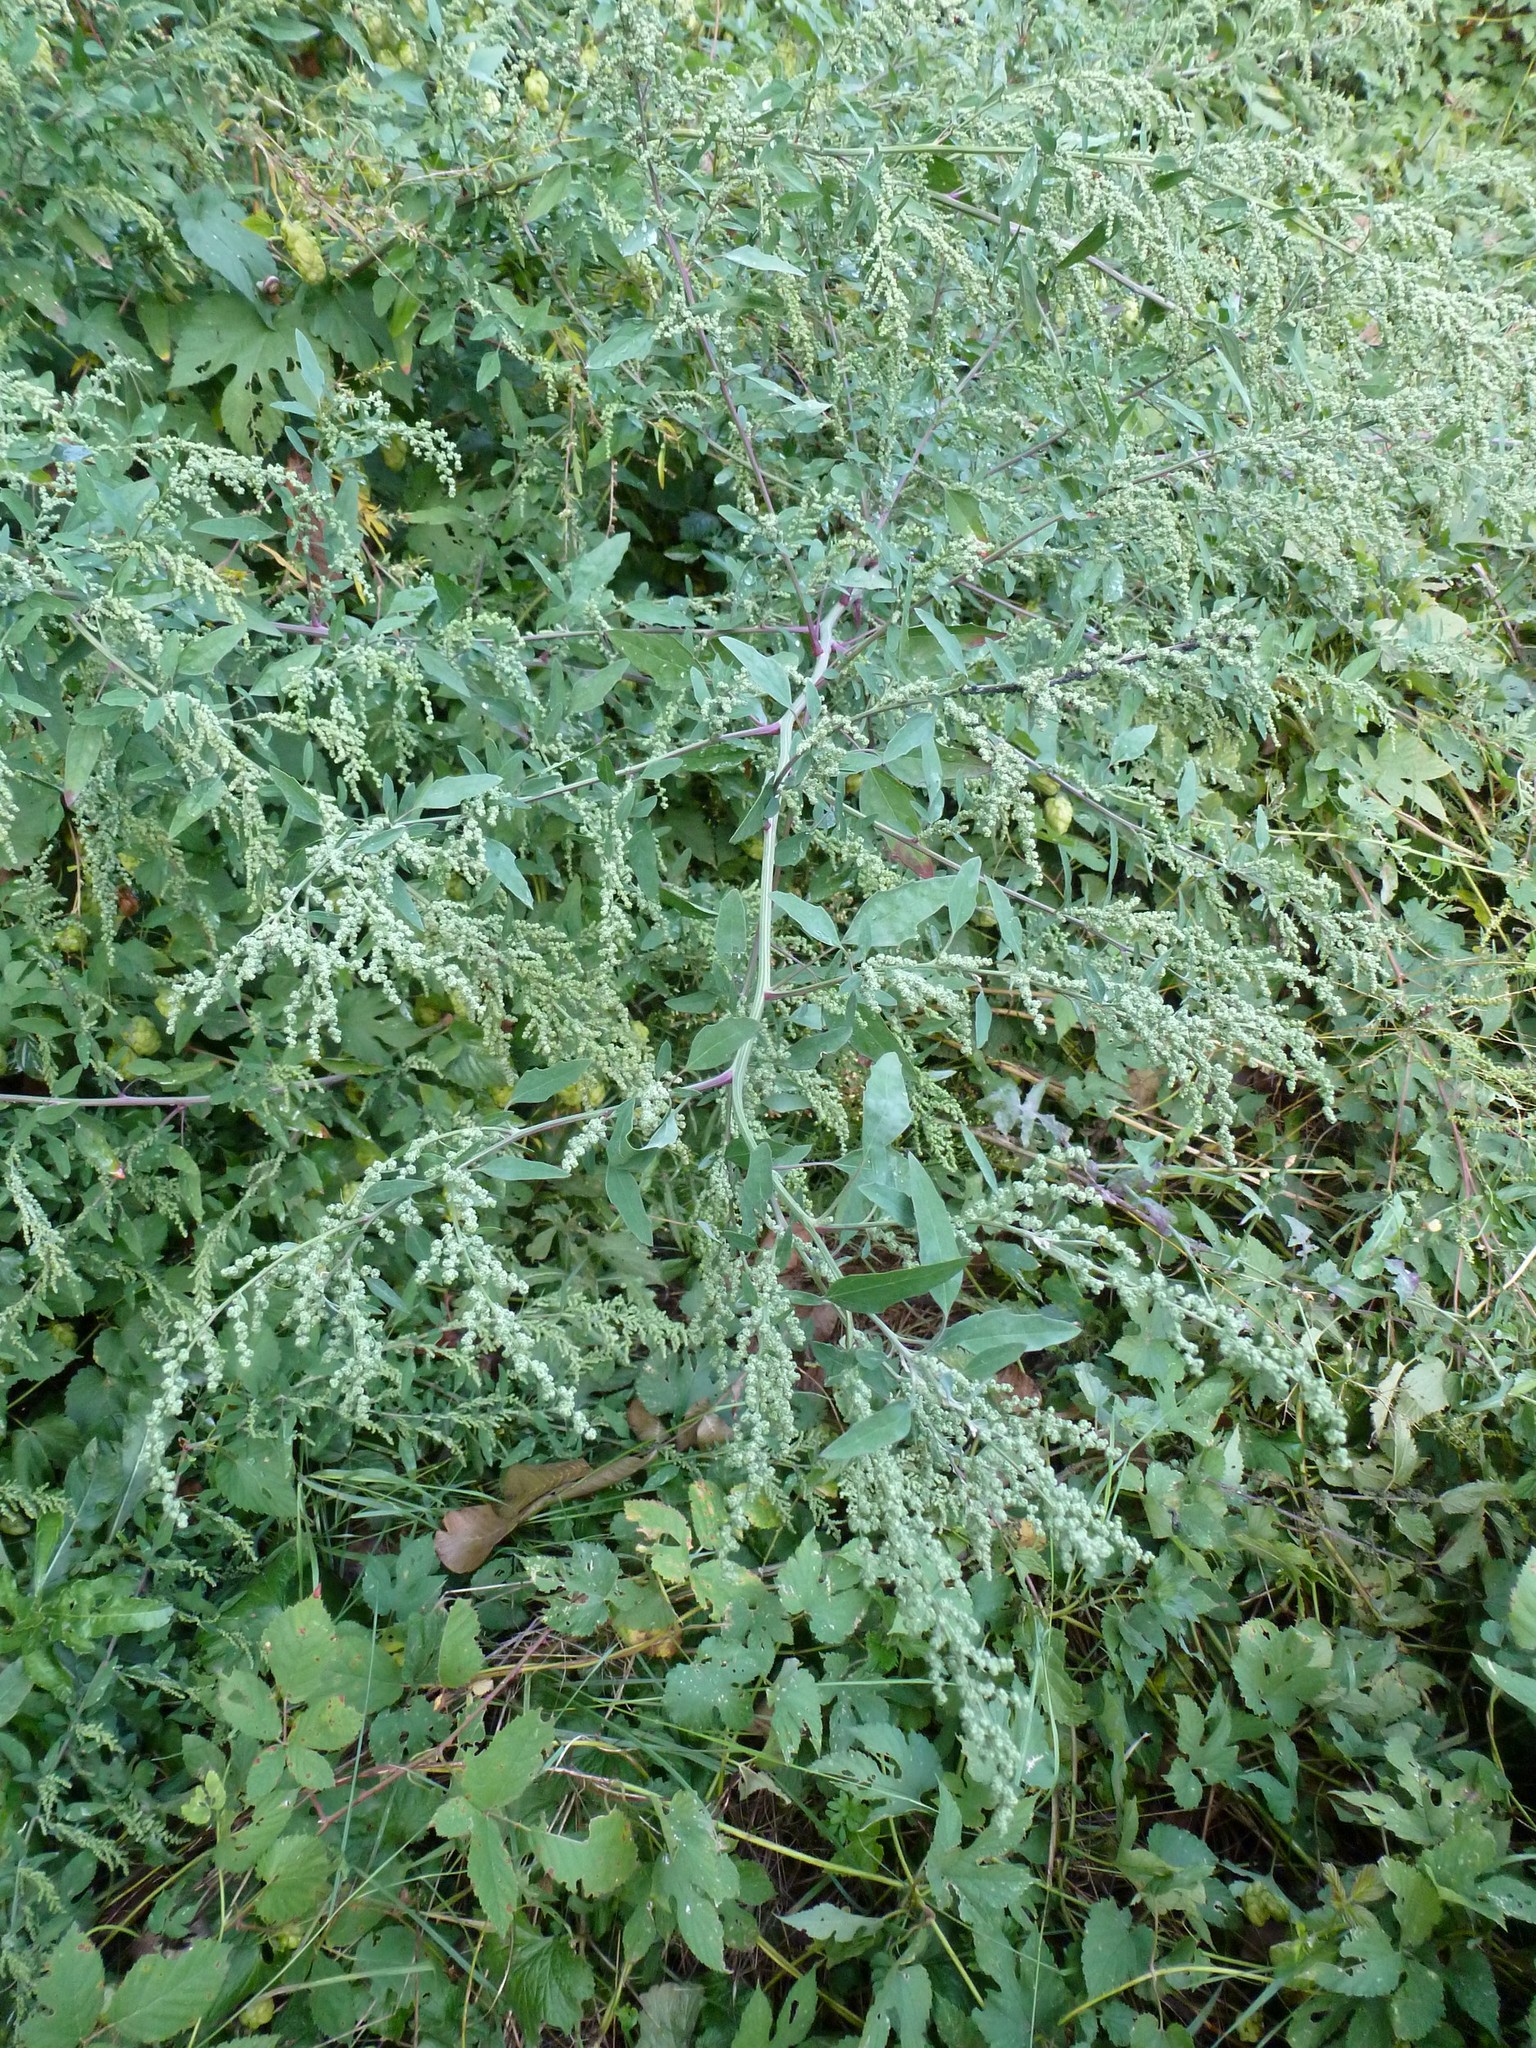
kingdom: Plantae
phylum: Tracheophyta
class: Magnoliopsida
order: Caryophyllales
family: Amaranthaceae
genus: Chenopodium
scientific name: Chenopodium album
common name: Fat-hen
